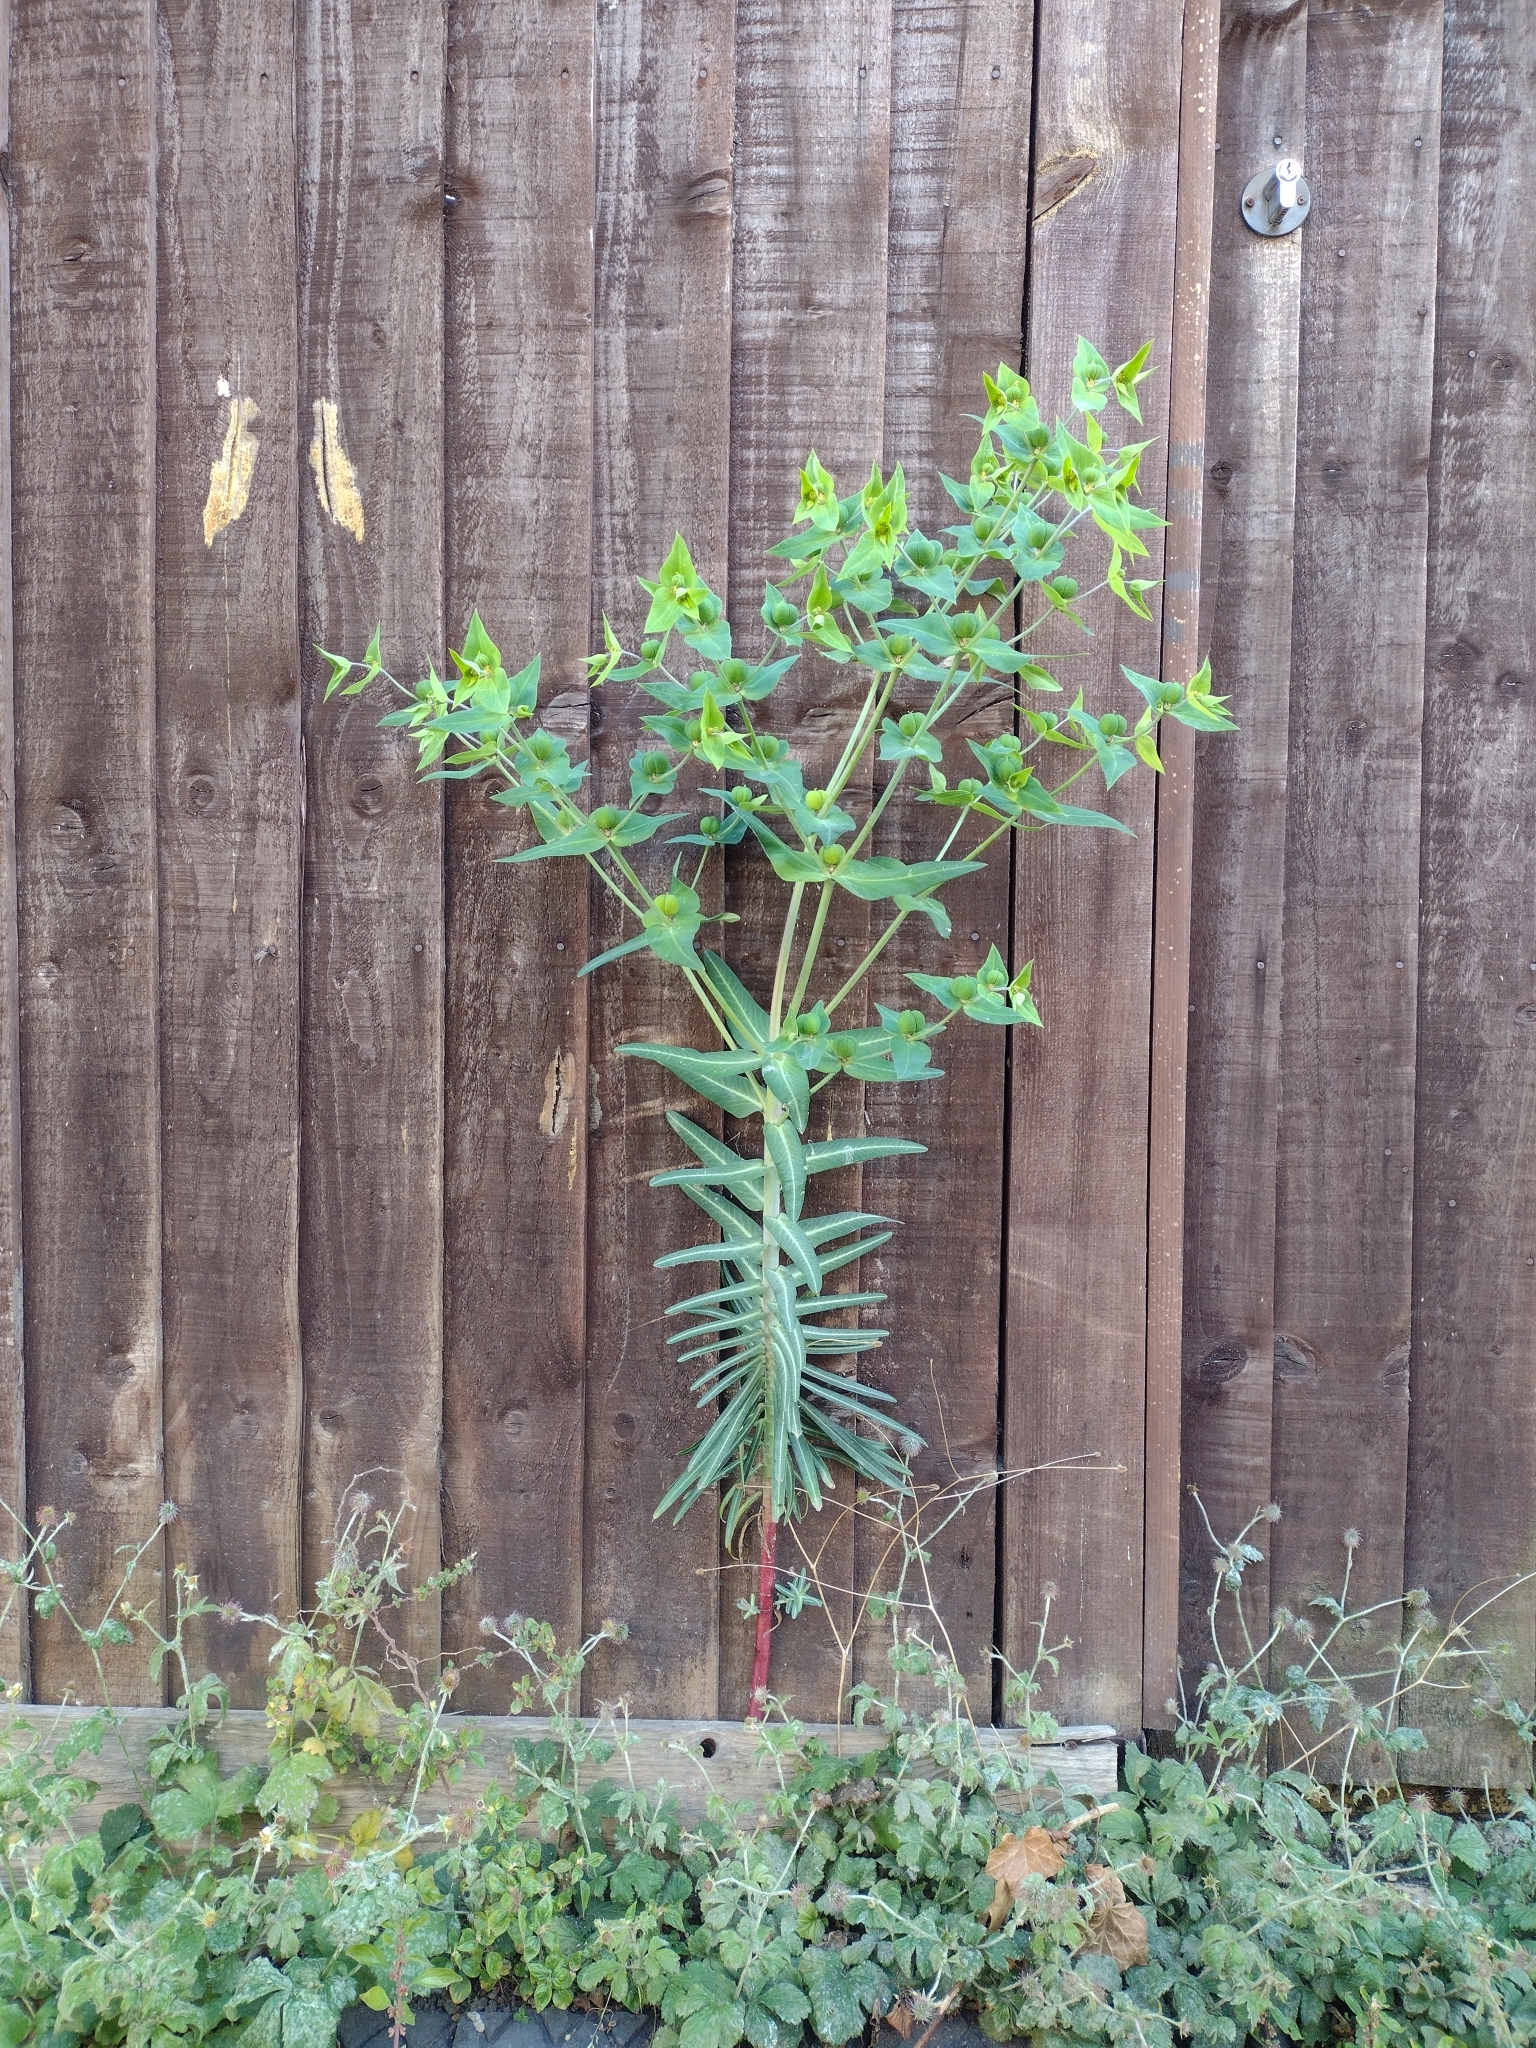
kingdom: Plantae
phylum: Tracheophyta
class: Magnoliopsida
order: Malpighiales
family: Euphorbiaceae
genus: Euphorbia
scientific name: Euphorbia lathyris
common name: Caper spurge
